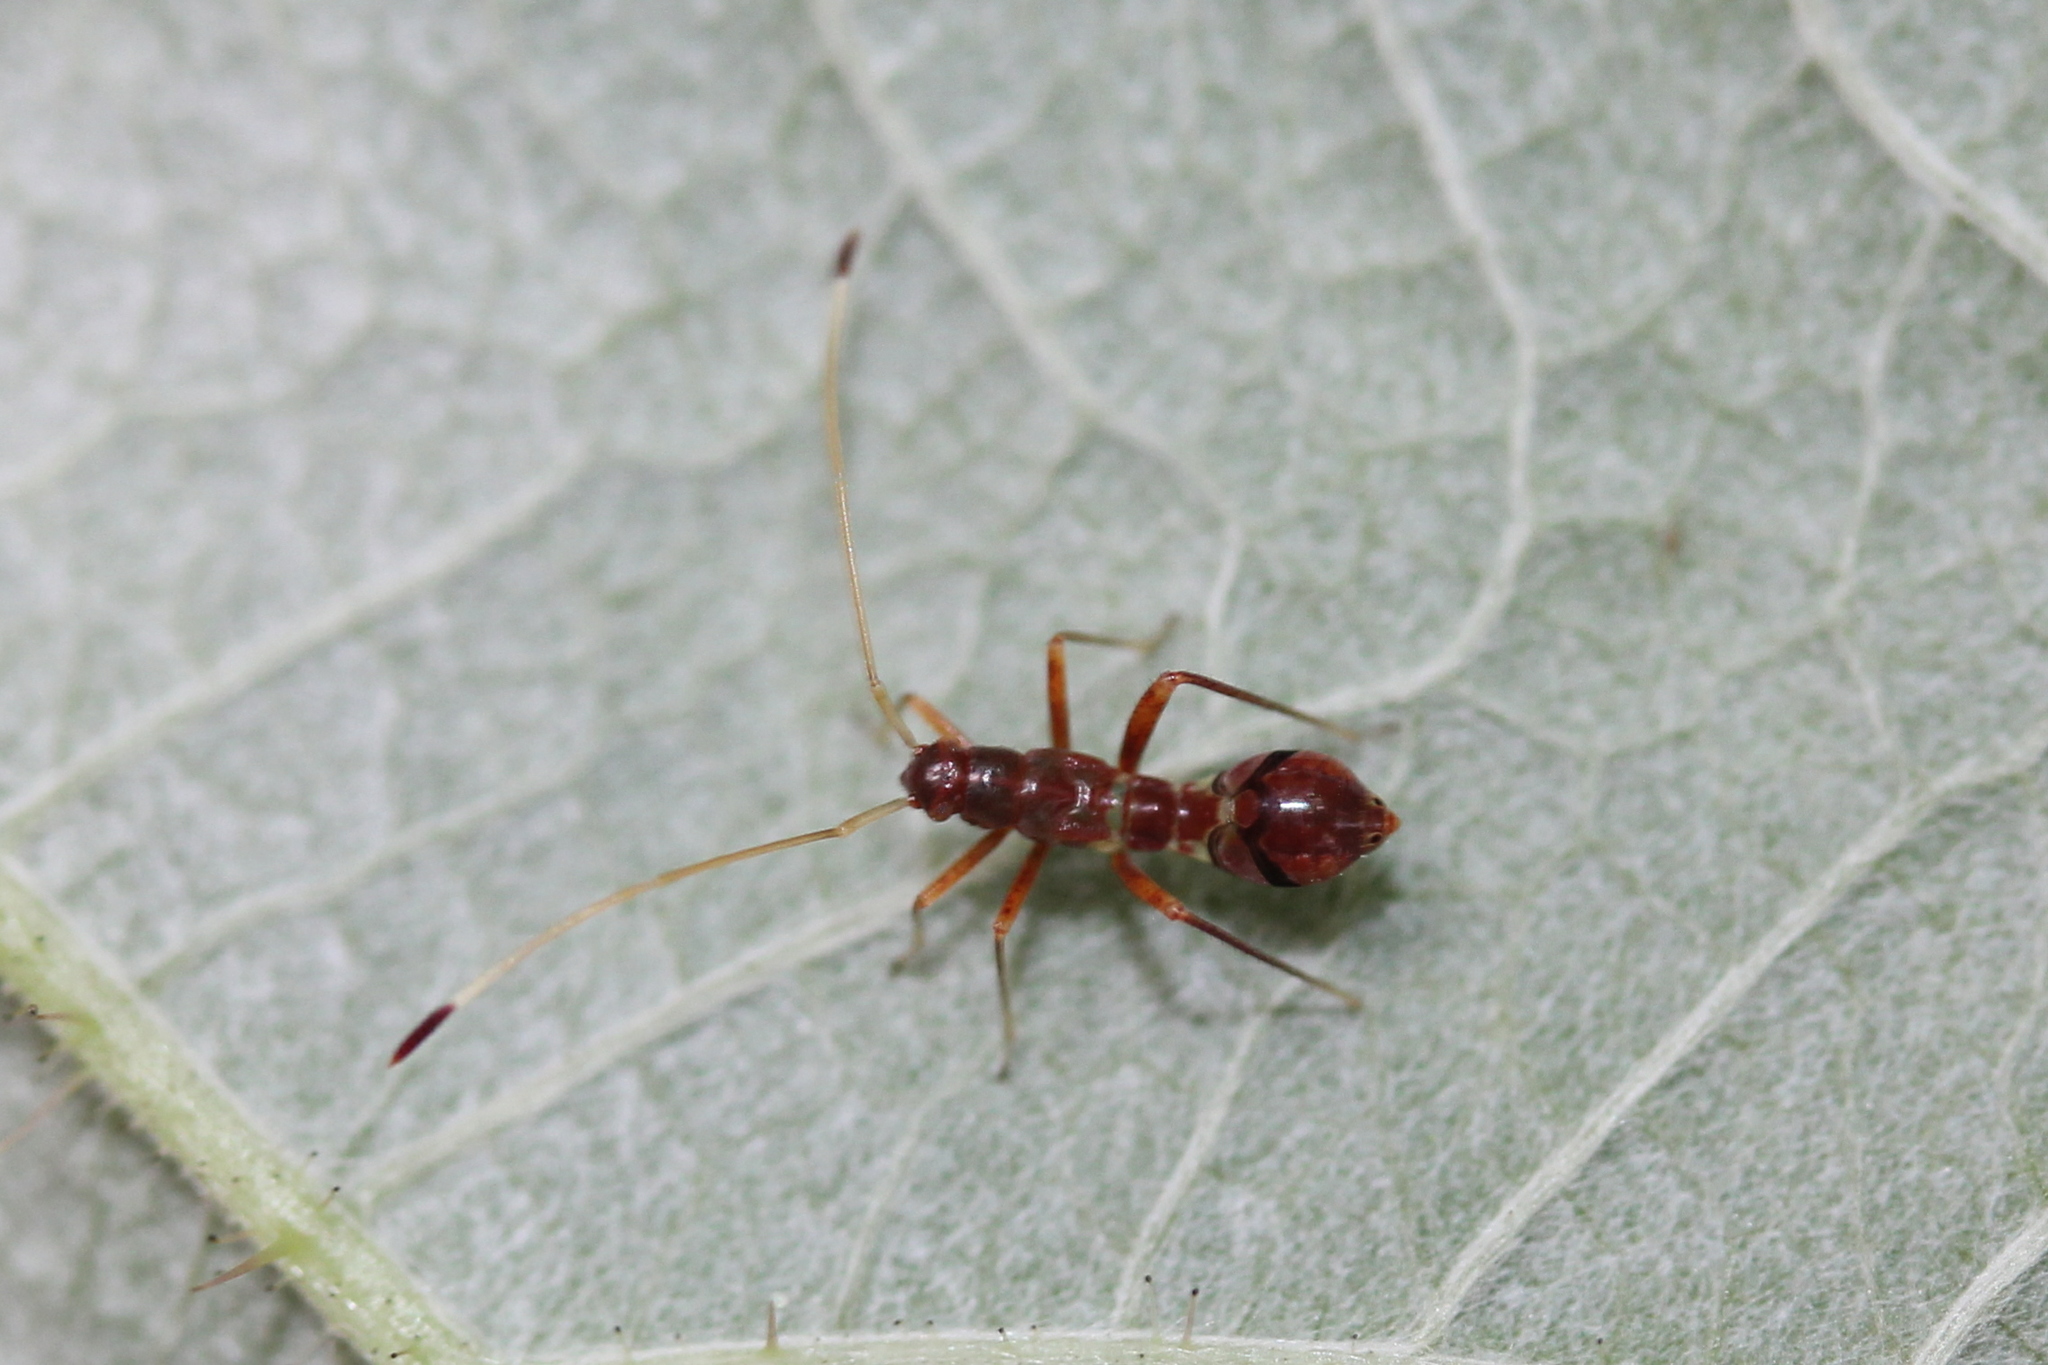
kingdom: Animalia
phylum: Arthropoda
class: Insecta
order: Hemiptera
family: Miridae
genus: Paraxenetus
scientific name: Paraxenetus guttulatus
